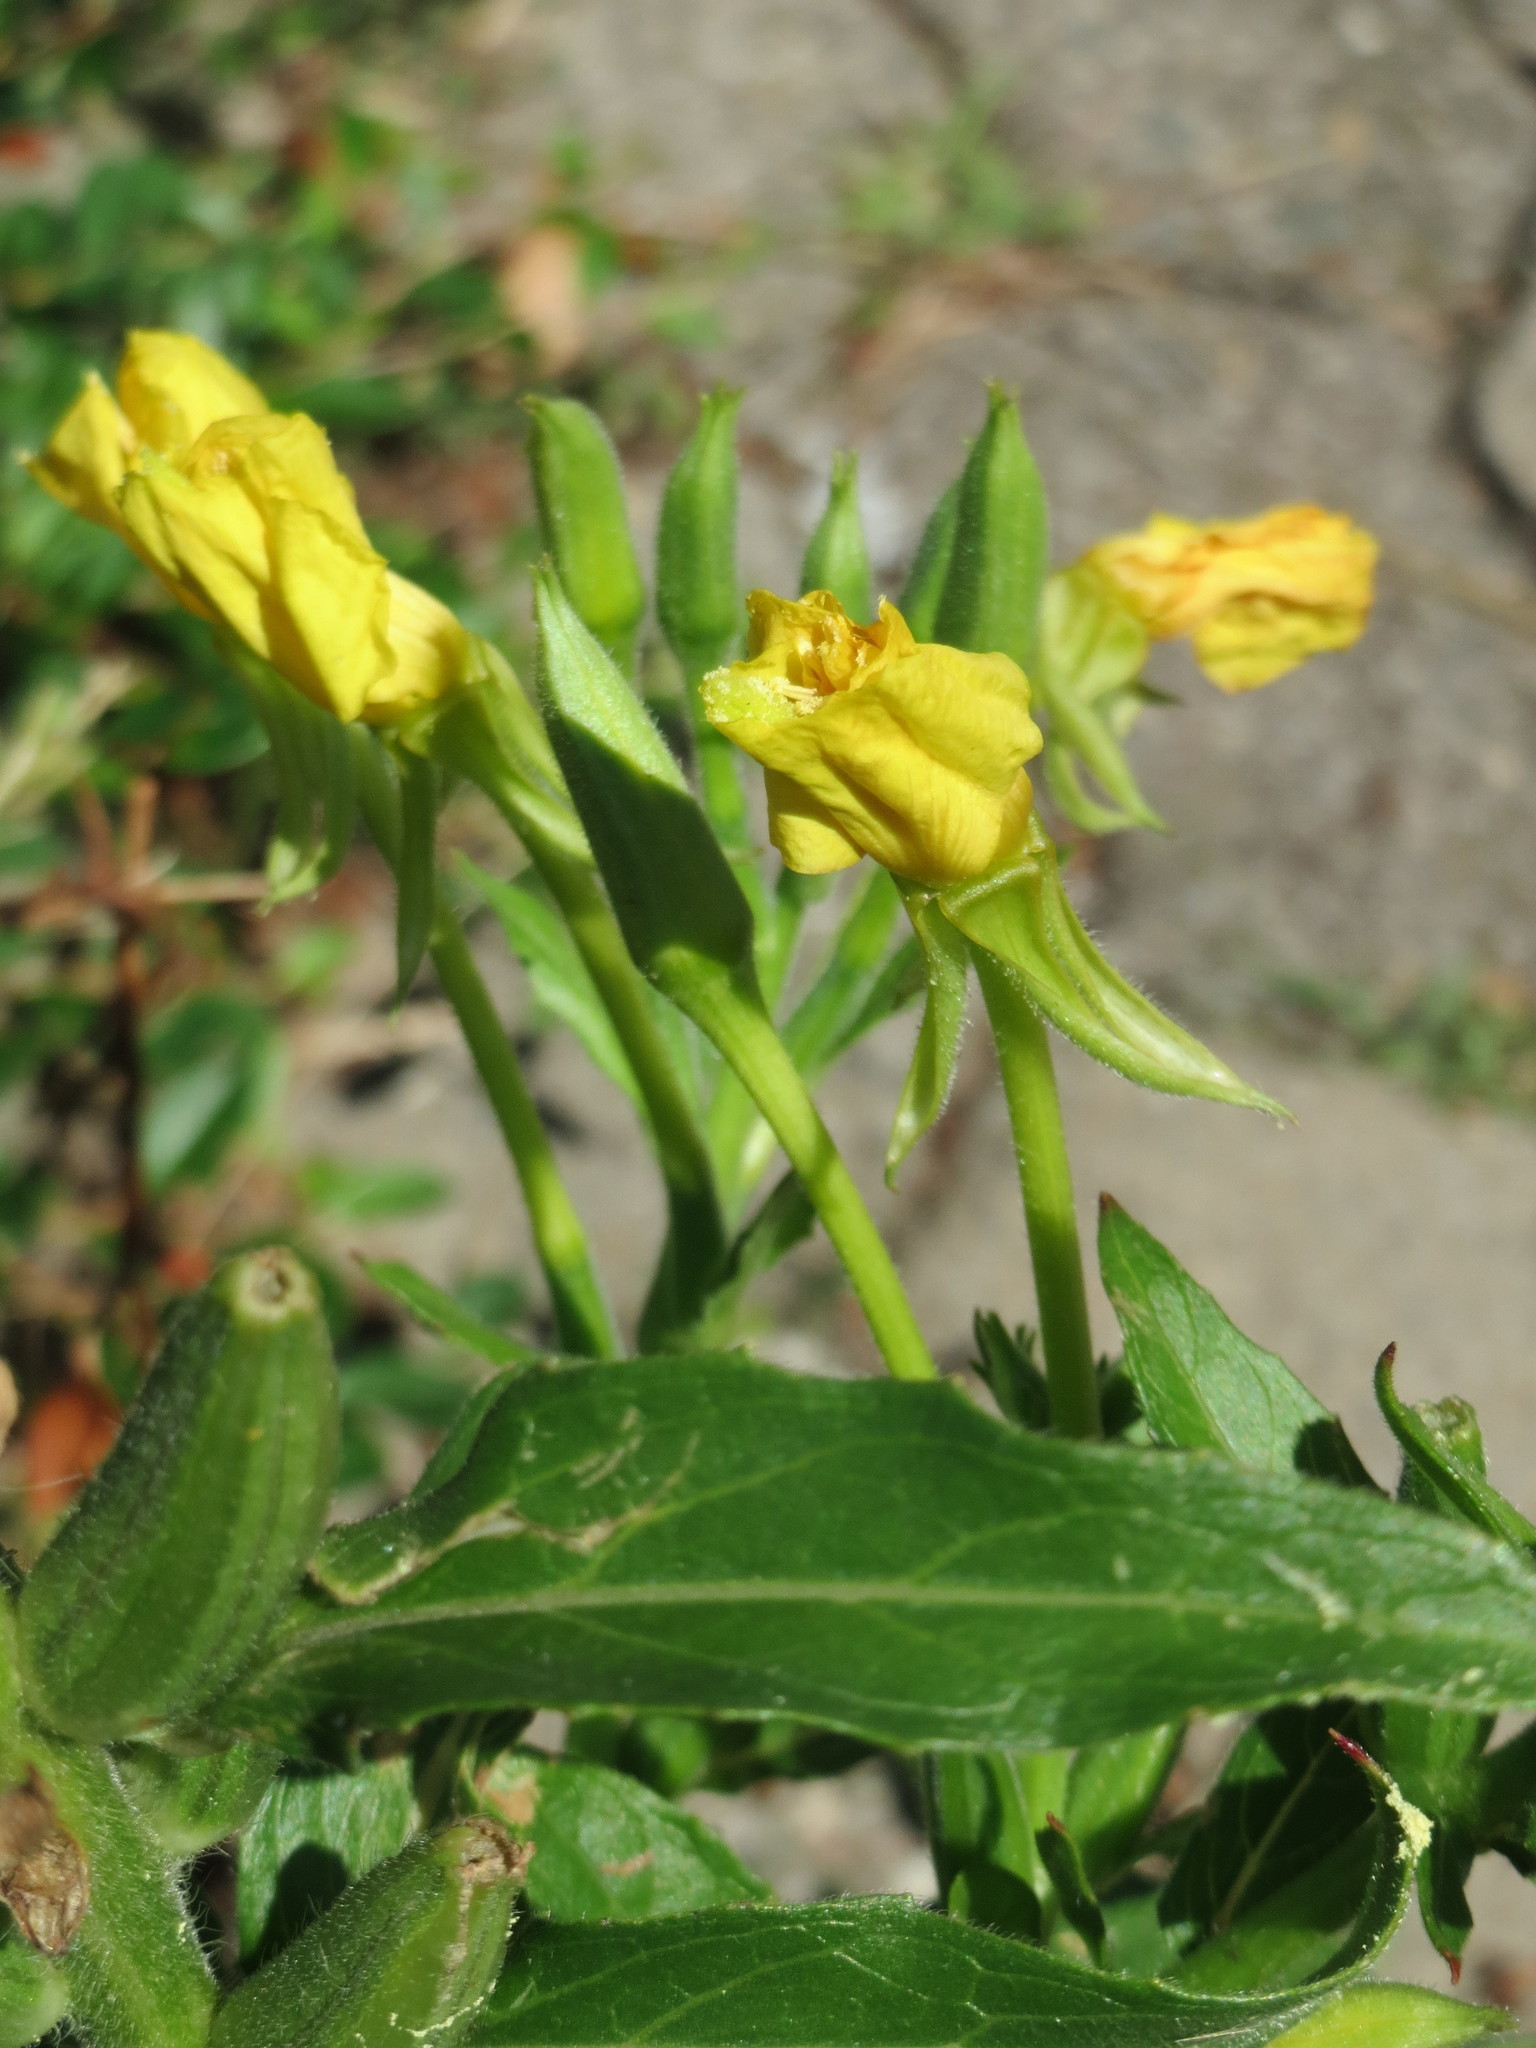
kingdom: Plantae
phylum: Tracheophyta
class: Magnoliopsida
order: Myrtales
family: Onagraceae
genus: Oenothera
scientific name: Oenothera biennis
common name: Common evening-primrose
